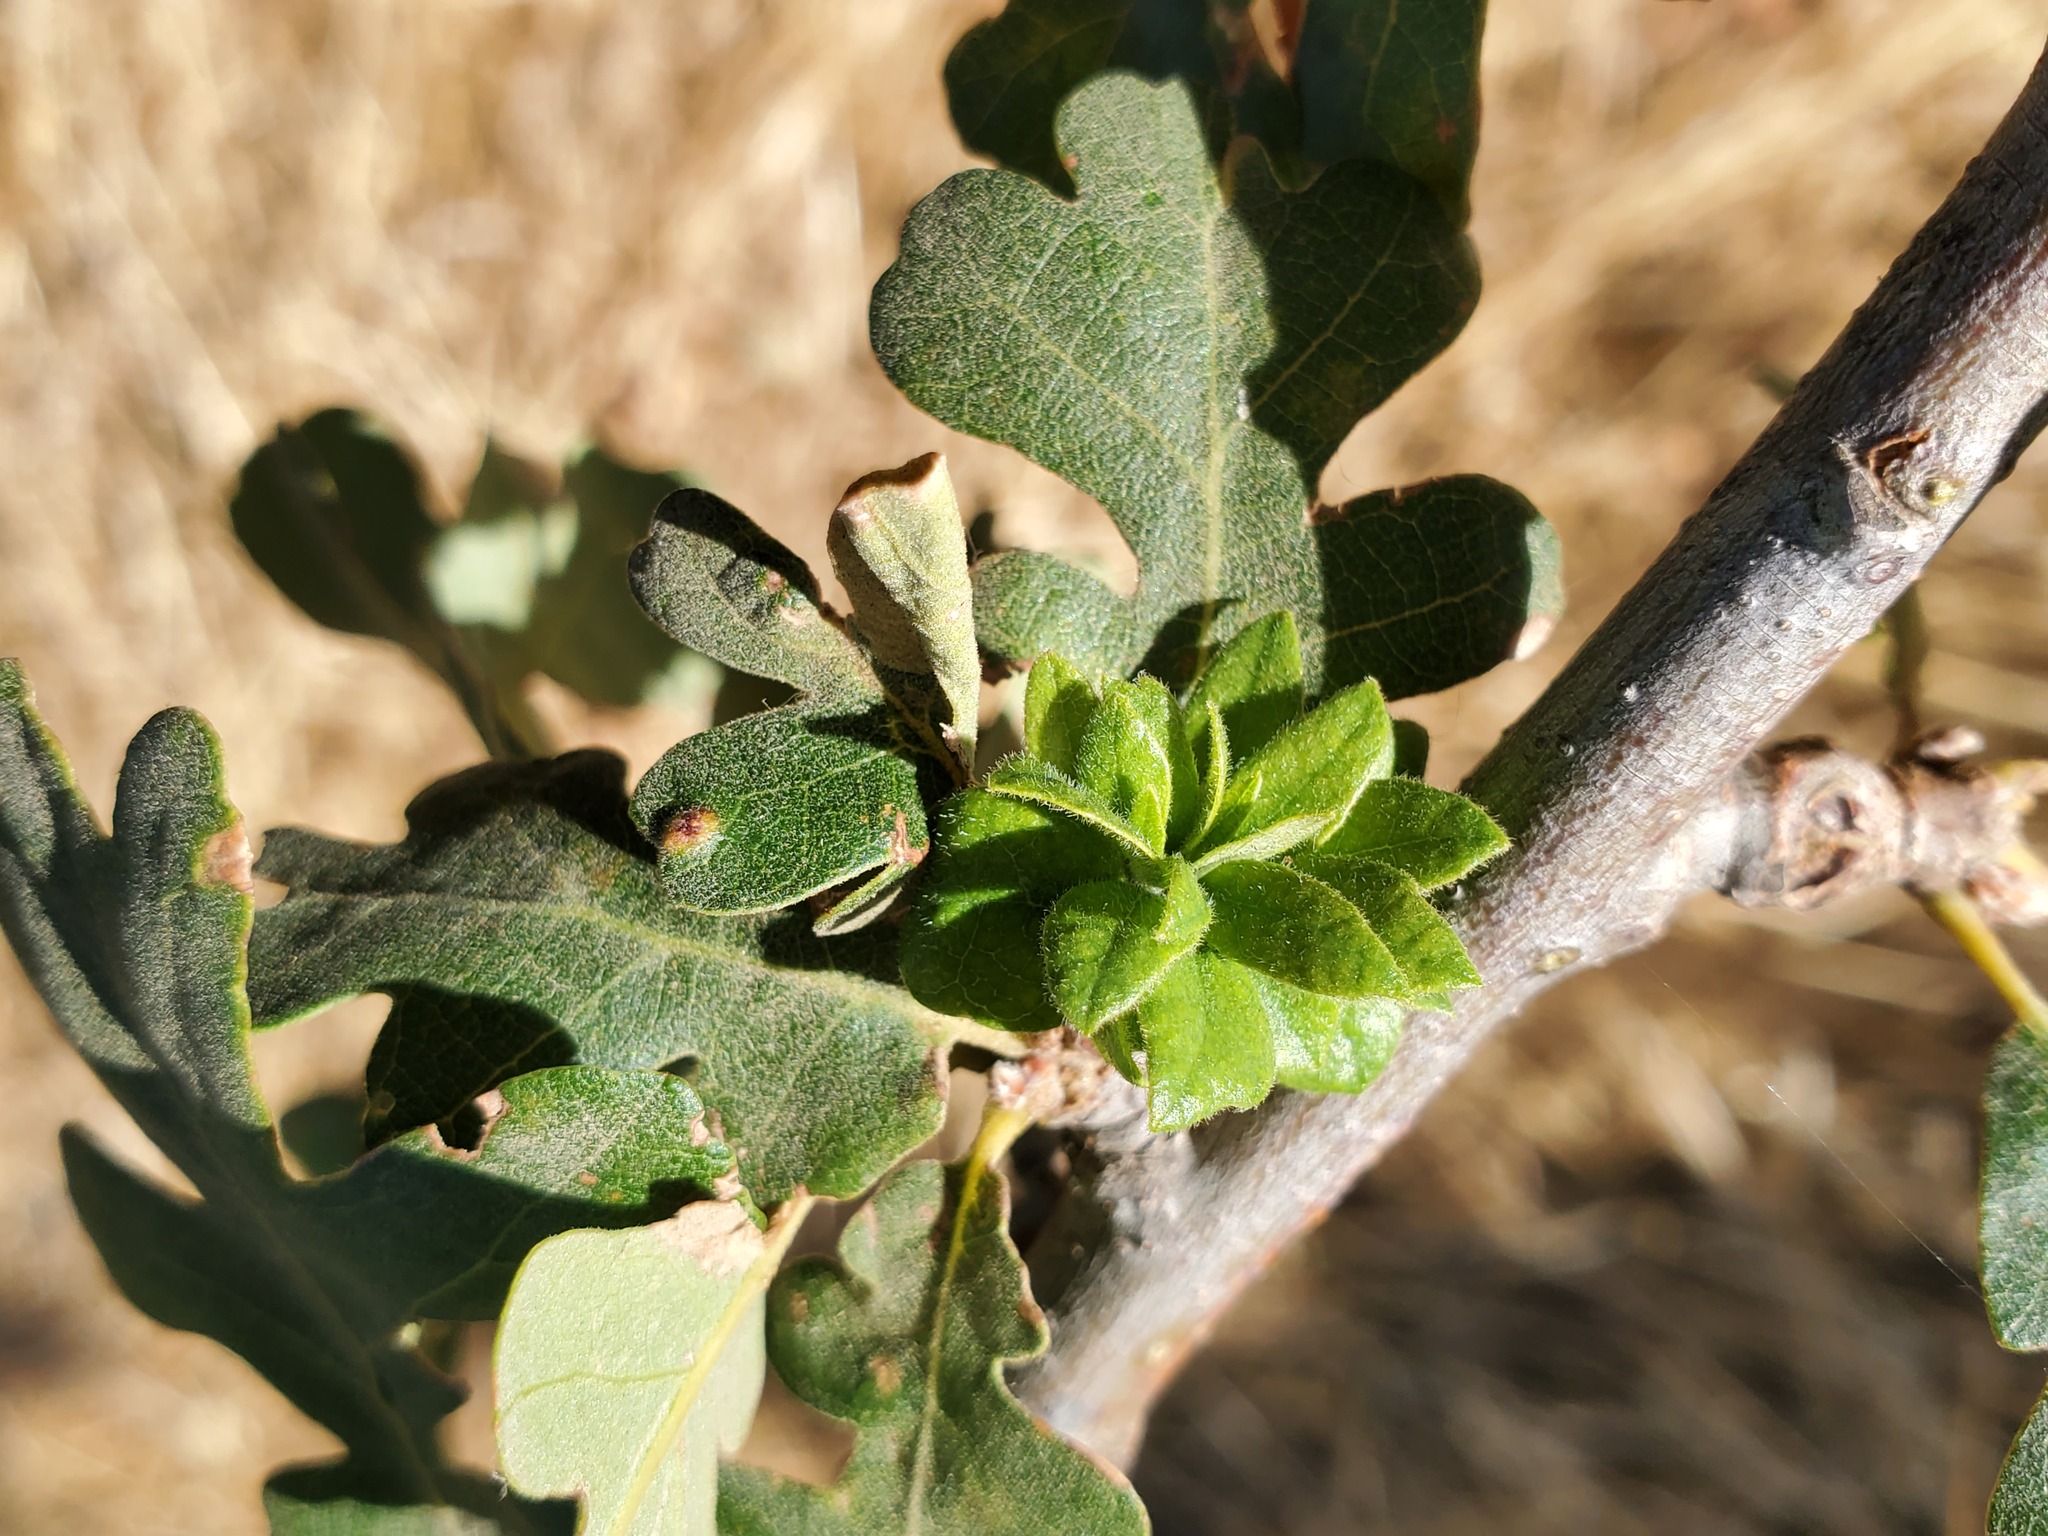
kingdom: Animalia
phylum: Arthropoda
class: Insecta
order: Hymenoptera
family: Cynipidae
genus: Andricus
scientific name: Andricus
